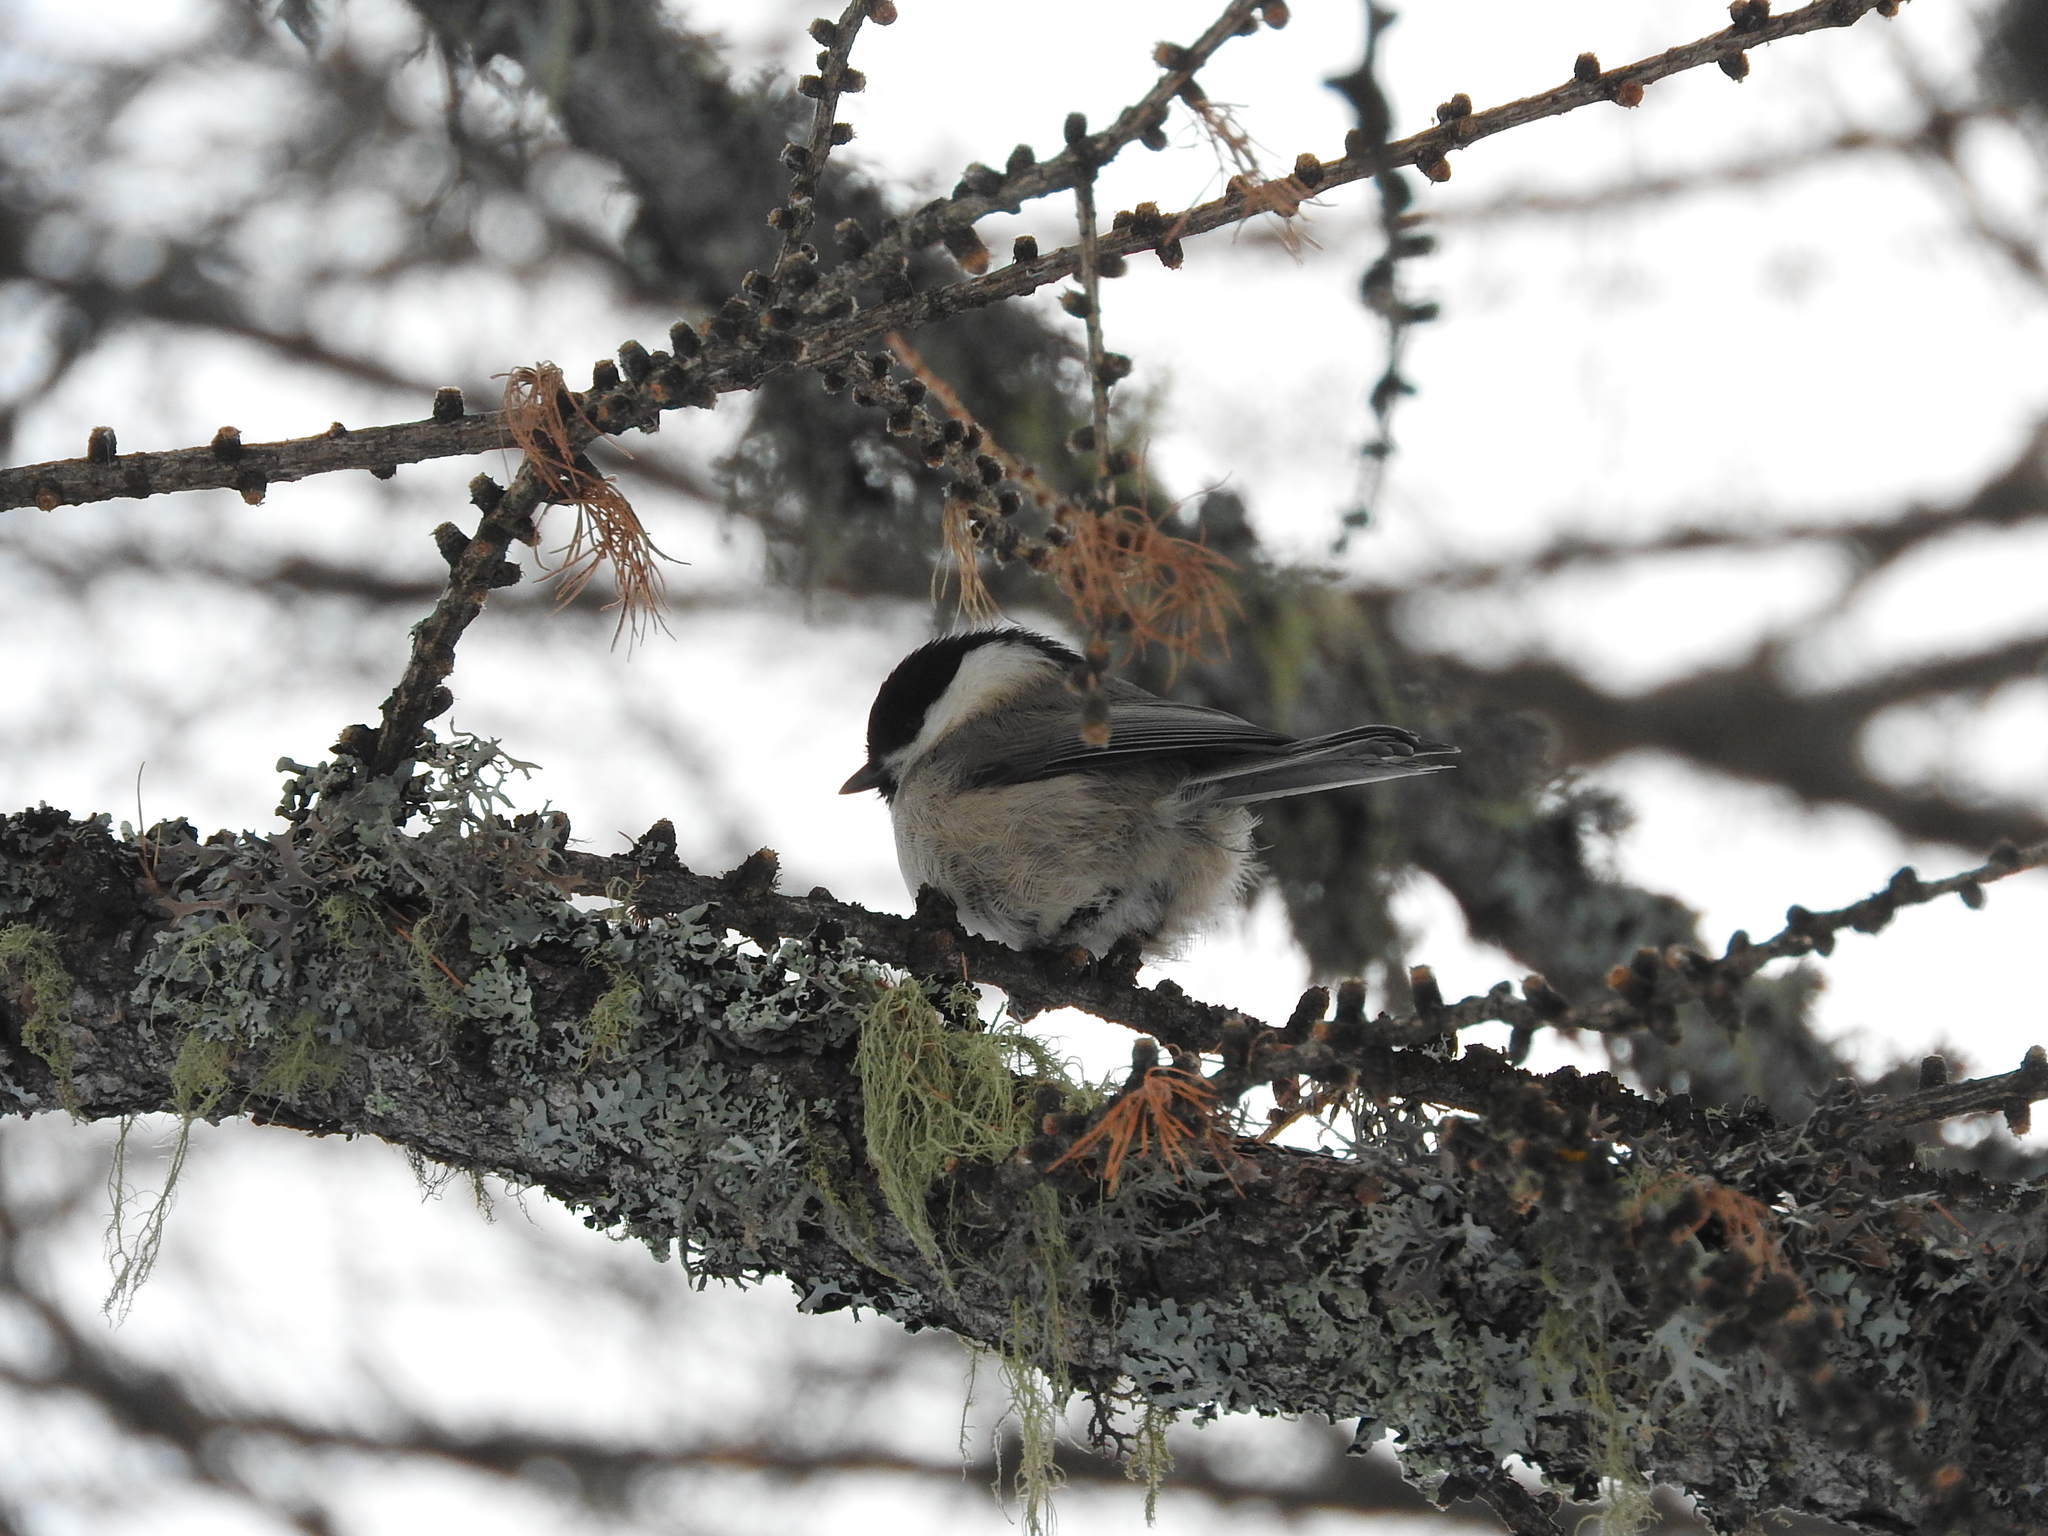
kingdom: Animalia
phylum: Chordata
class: Aves
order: Passeriformes
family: Paridae
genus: Poecile
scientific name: Poecile montanus
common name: Willow tit
